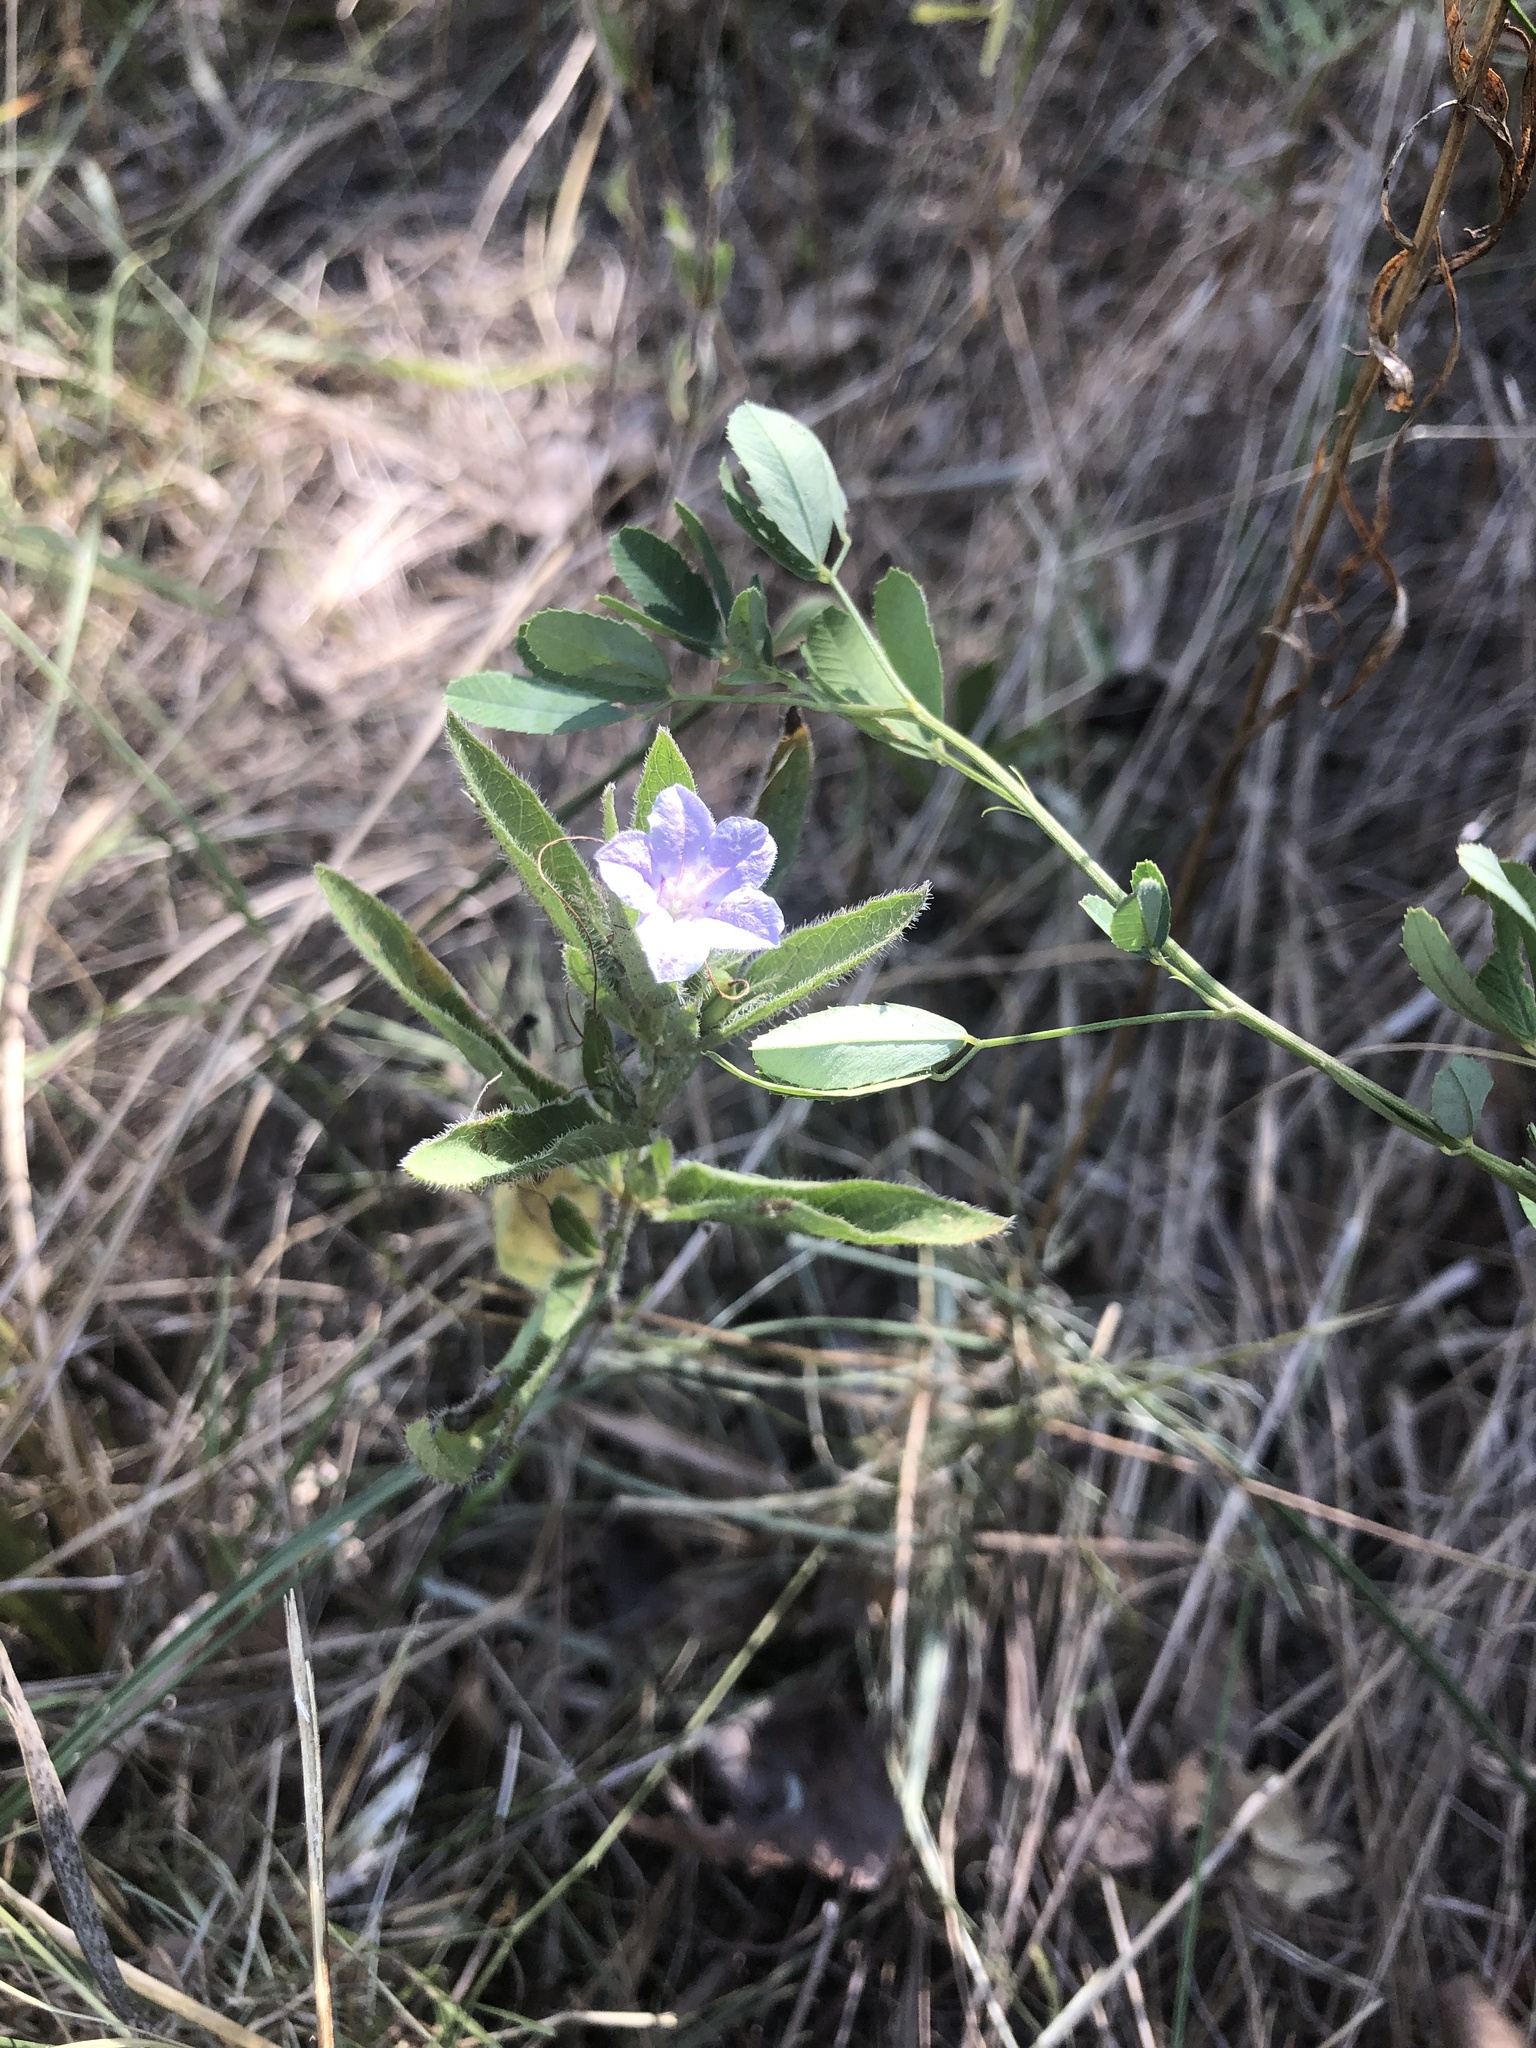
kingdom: Plantae
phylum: Tracheophyta
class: Magnoliopsida
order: Lamiales
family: Acanthaceae
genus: Ruellia
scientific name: Ruellia humilis
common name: Fringe-leaf ruellia
